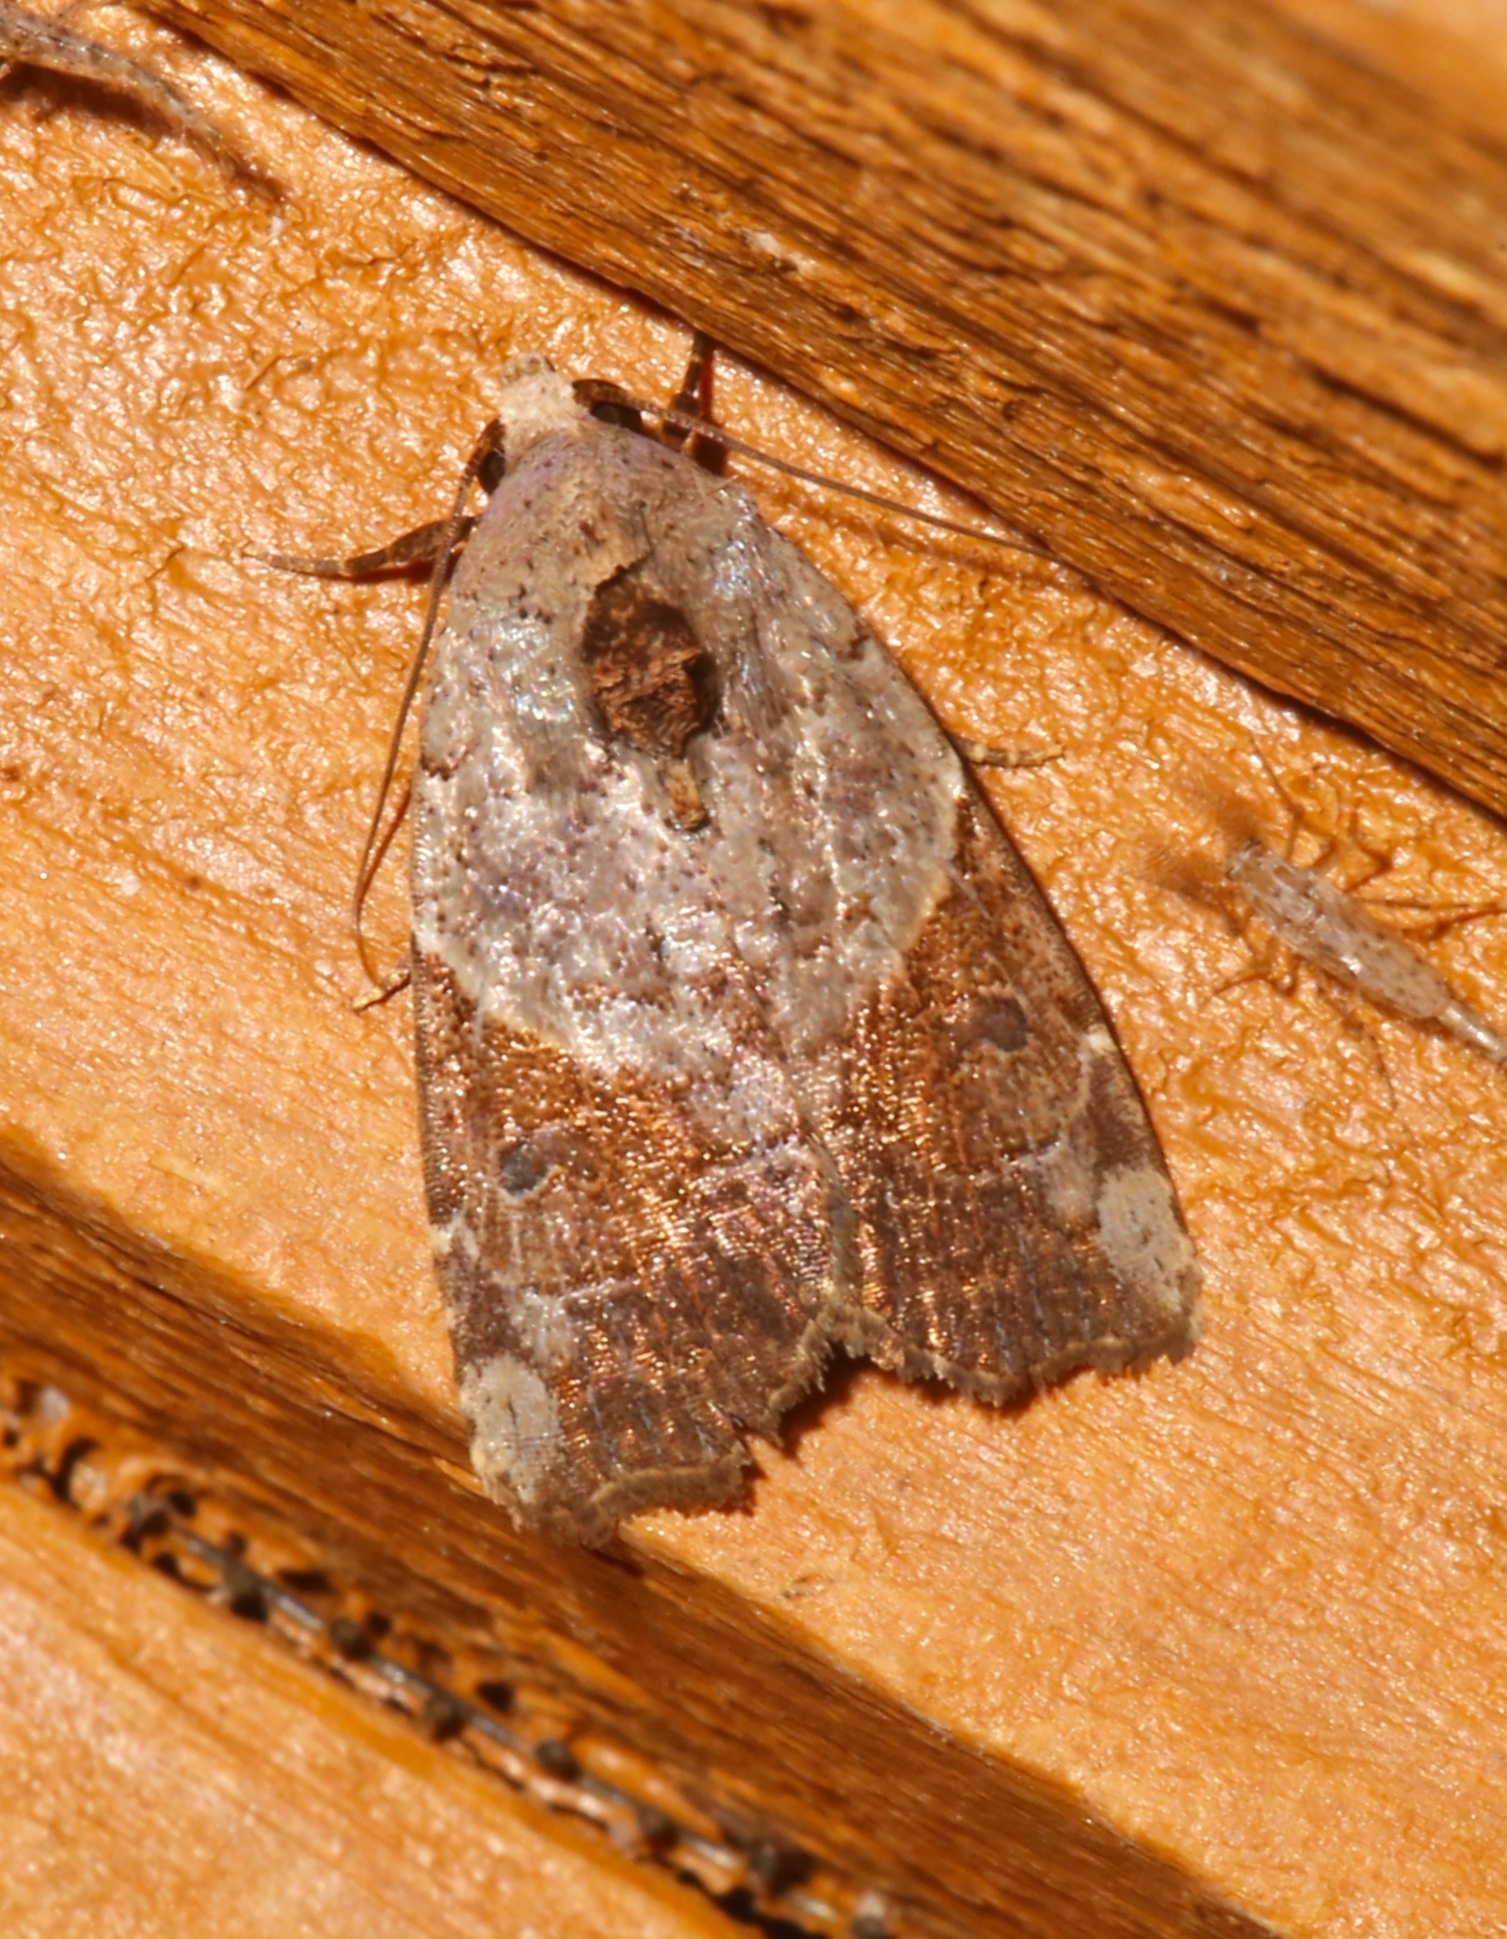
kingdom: Animalia
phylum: Arthropoda
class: Insecta
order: Lepidoptera
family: Noctuidae
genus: Gonodes
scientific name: Gonodes liquida
